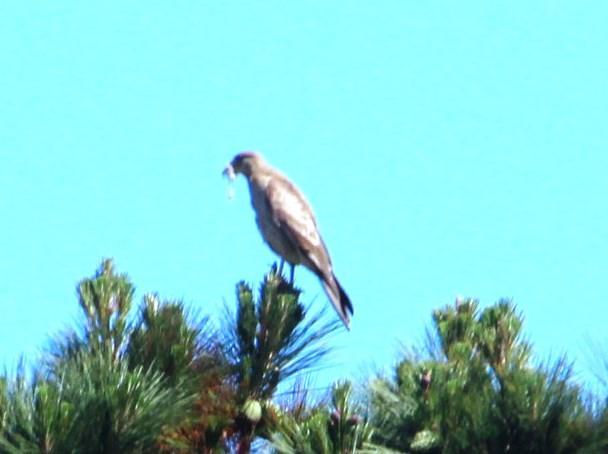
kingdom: Animalia
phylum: Chordata
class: Aves
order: Falconiformes
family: Falconidae
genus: Daptrius
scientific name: Daptrius
